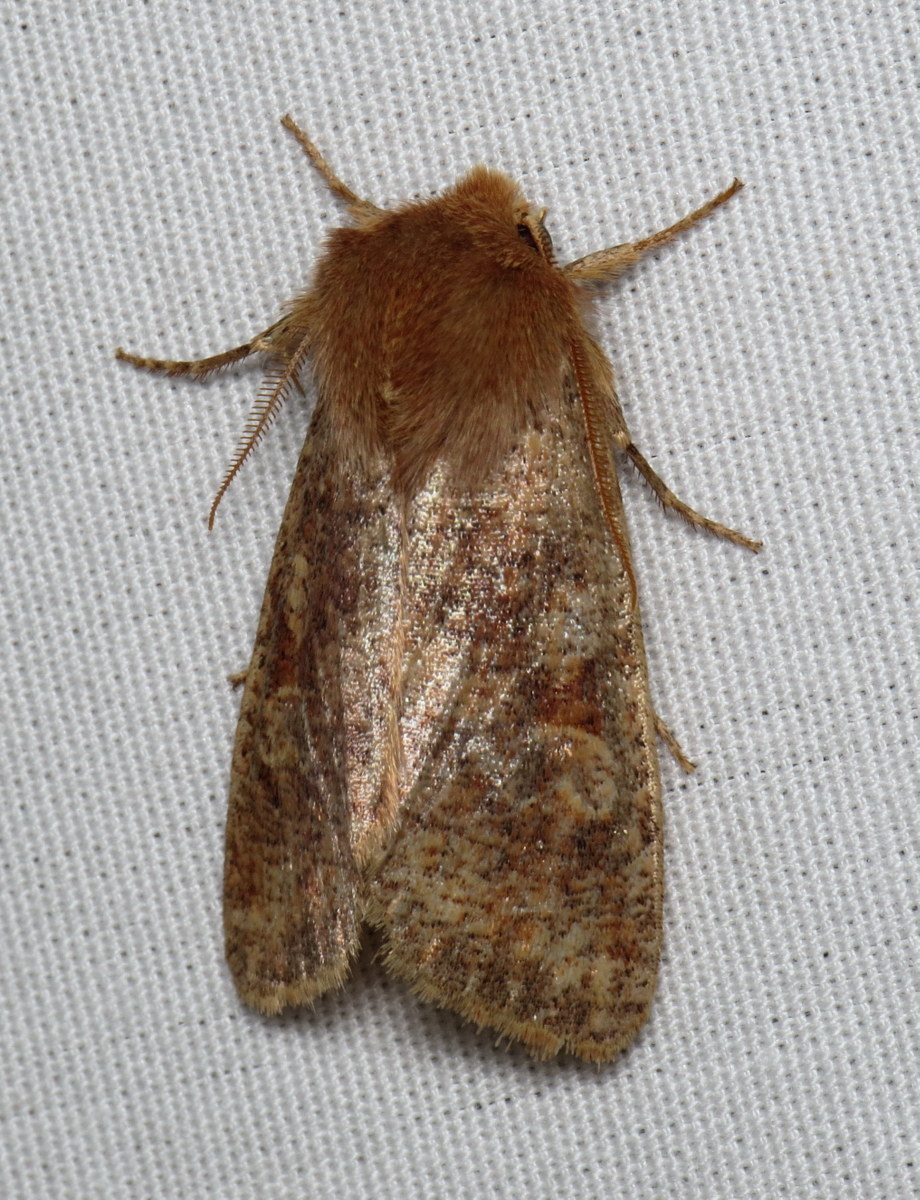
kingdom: Animalia
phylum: Arthropoda
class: Insecta
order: Lepidoptera
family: Noctuidae
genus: Orthosia
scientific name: Orthosia rubescens
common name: Ruby quaker
